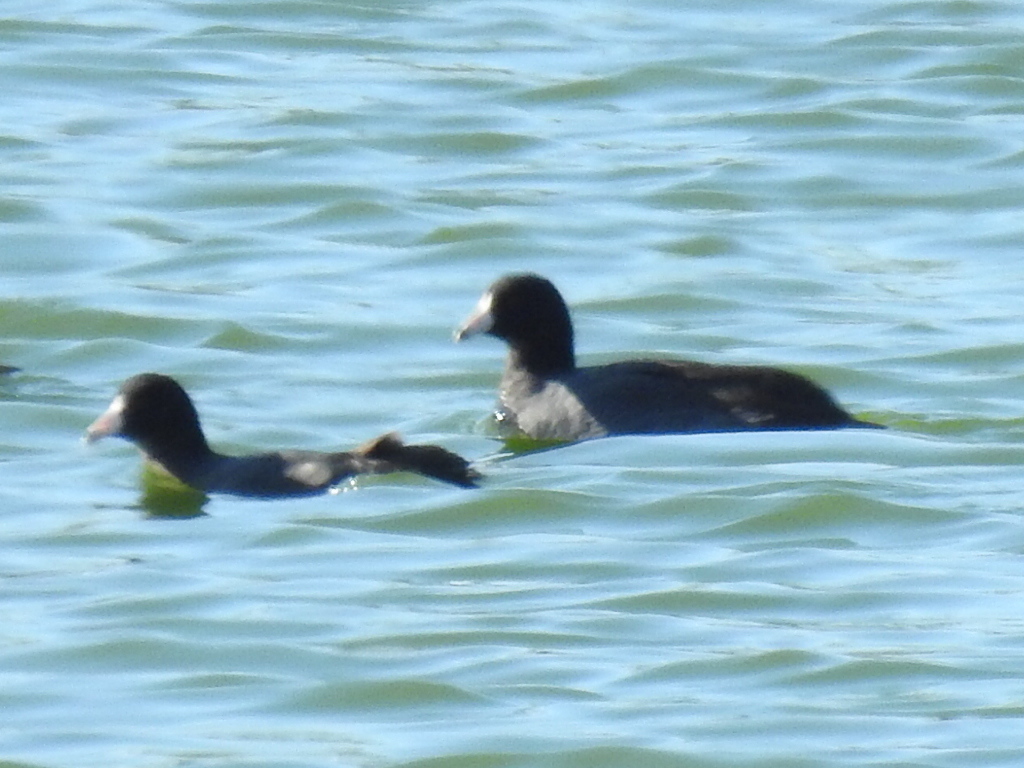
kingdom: Animalia
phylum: Chordata
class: Aves
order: Gruiformes
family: Rallidae
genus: Fulica
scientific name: Fulica americana
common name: American coot
